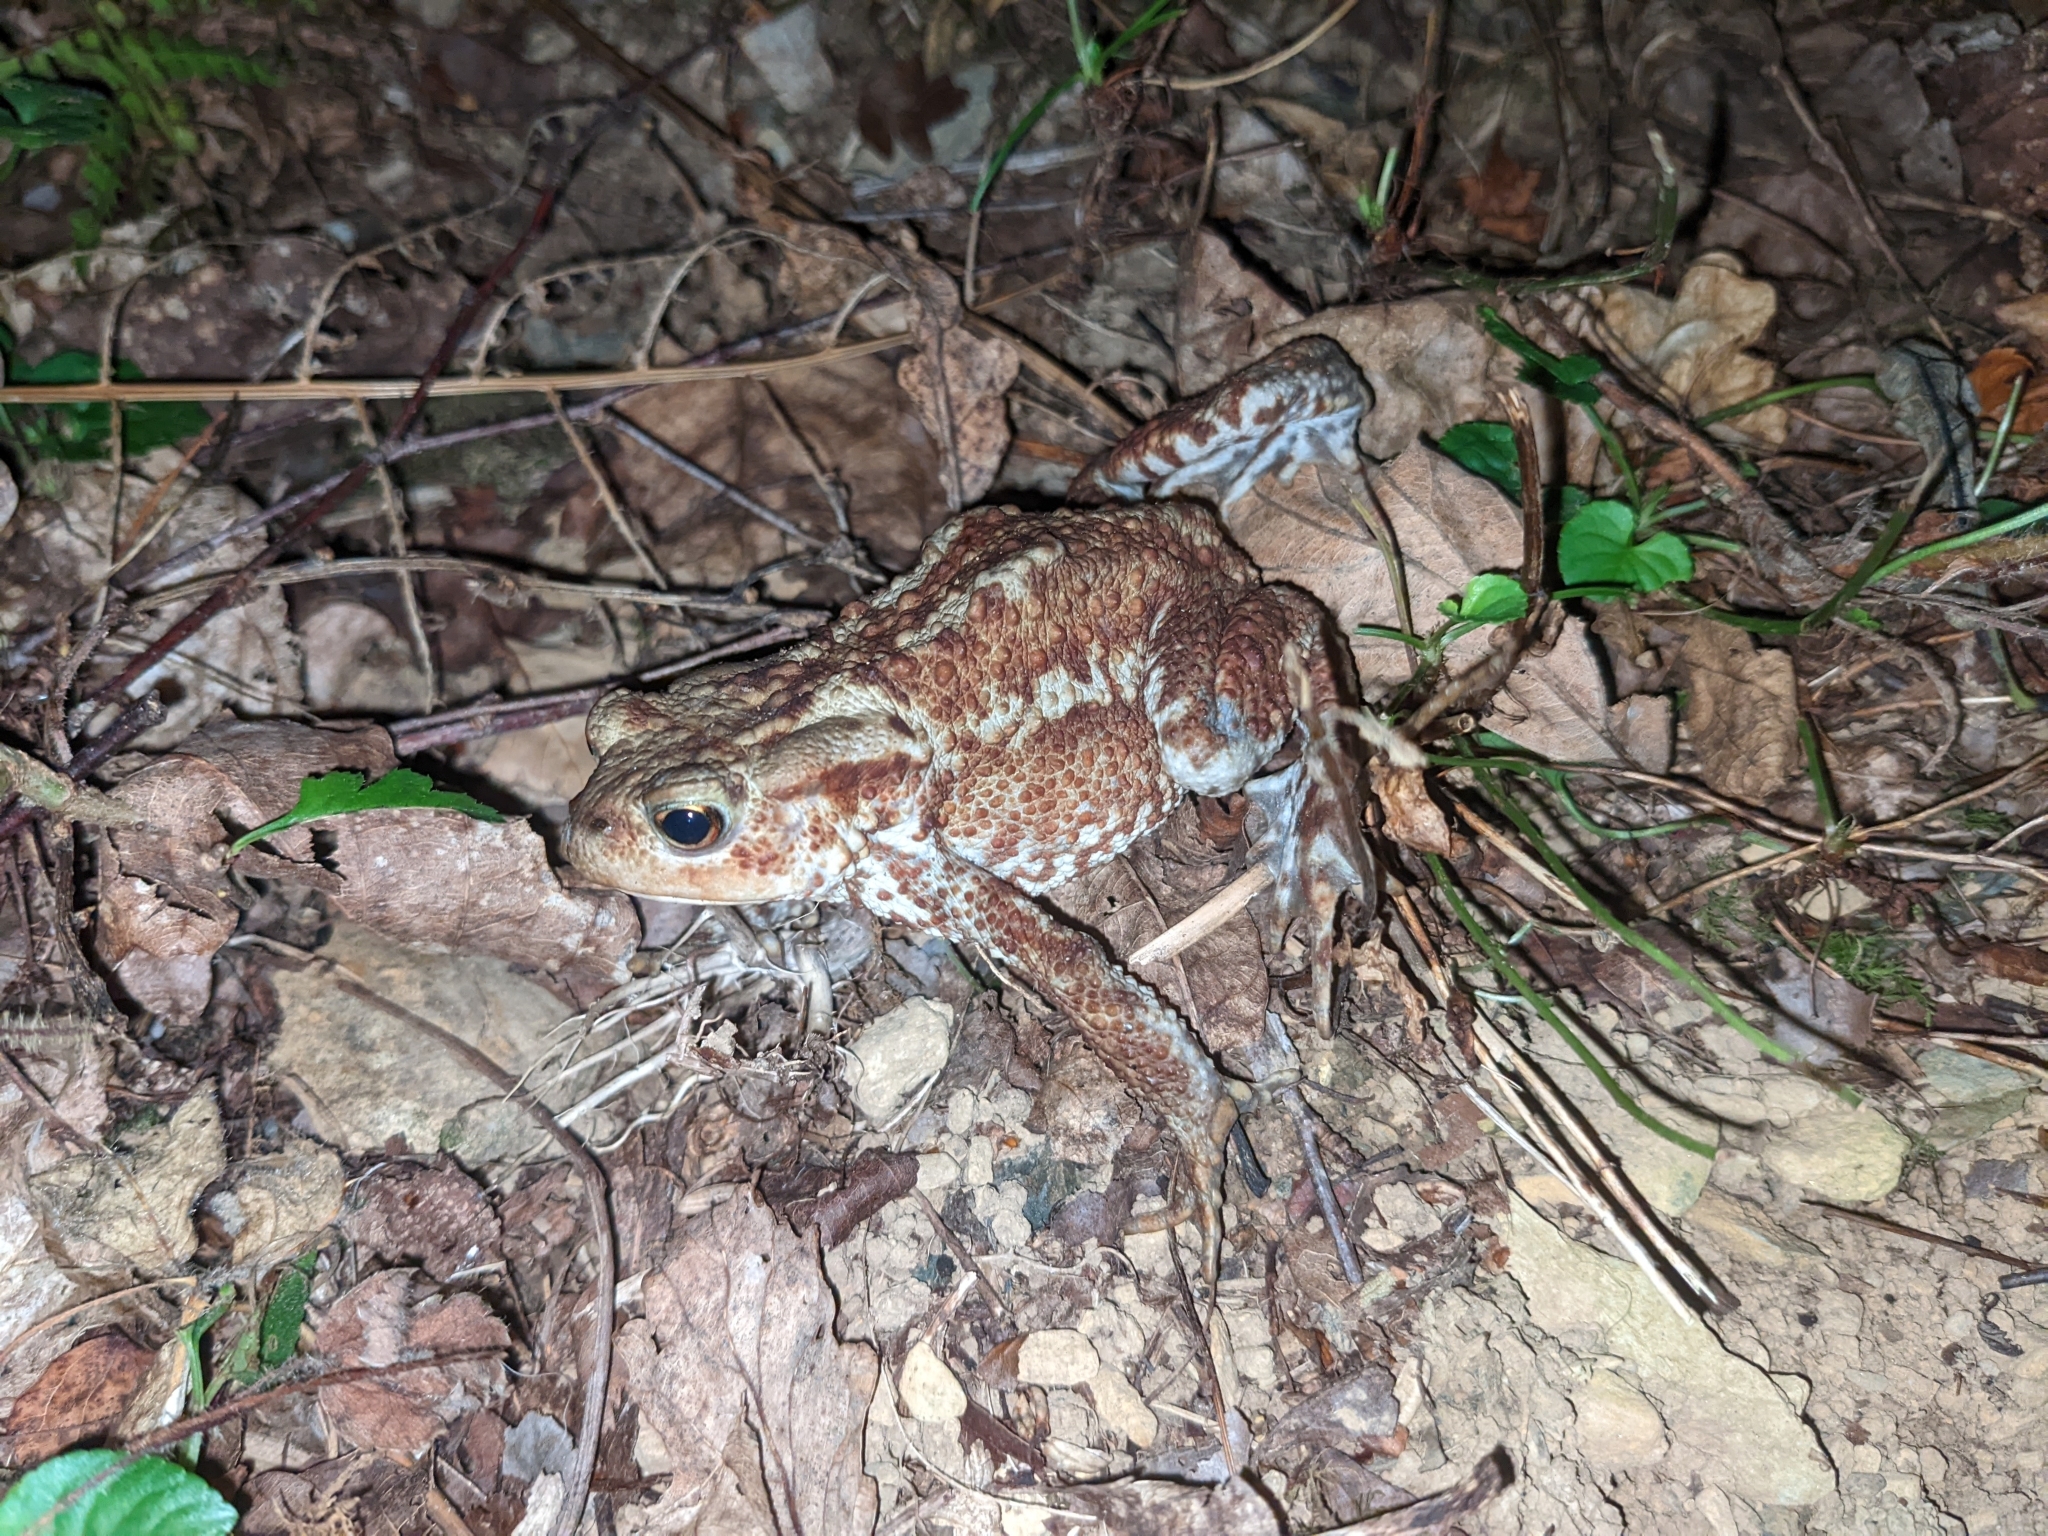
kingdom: Animalia
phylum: Chordata
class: Amphibia
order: Anura
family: Bufonidae
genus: Bufo
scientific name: Bufo bufo
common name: Common toad
